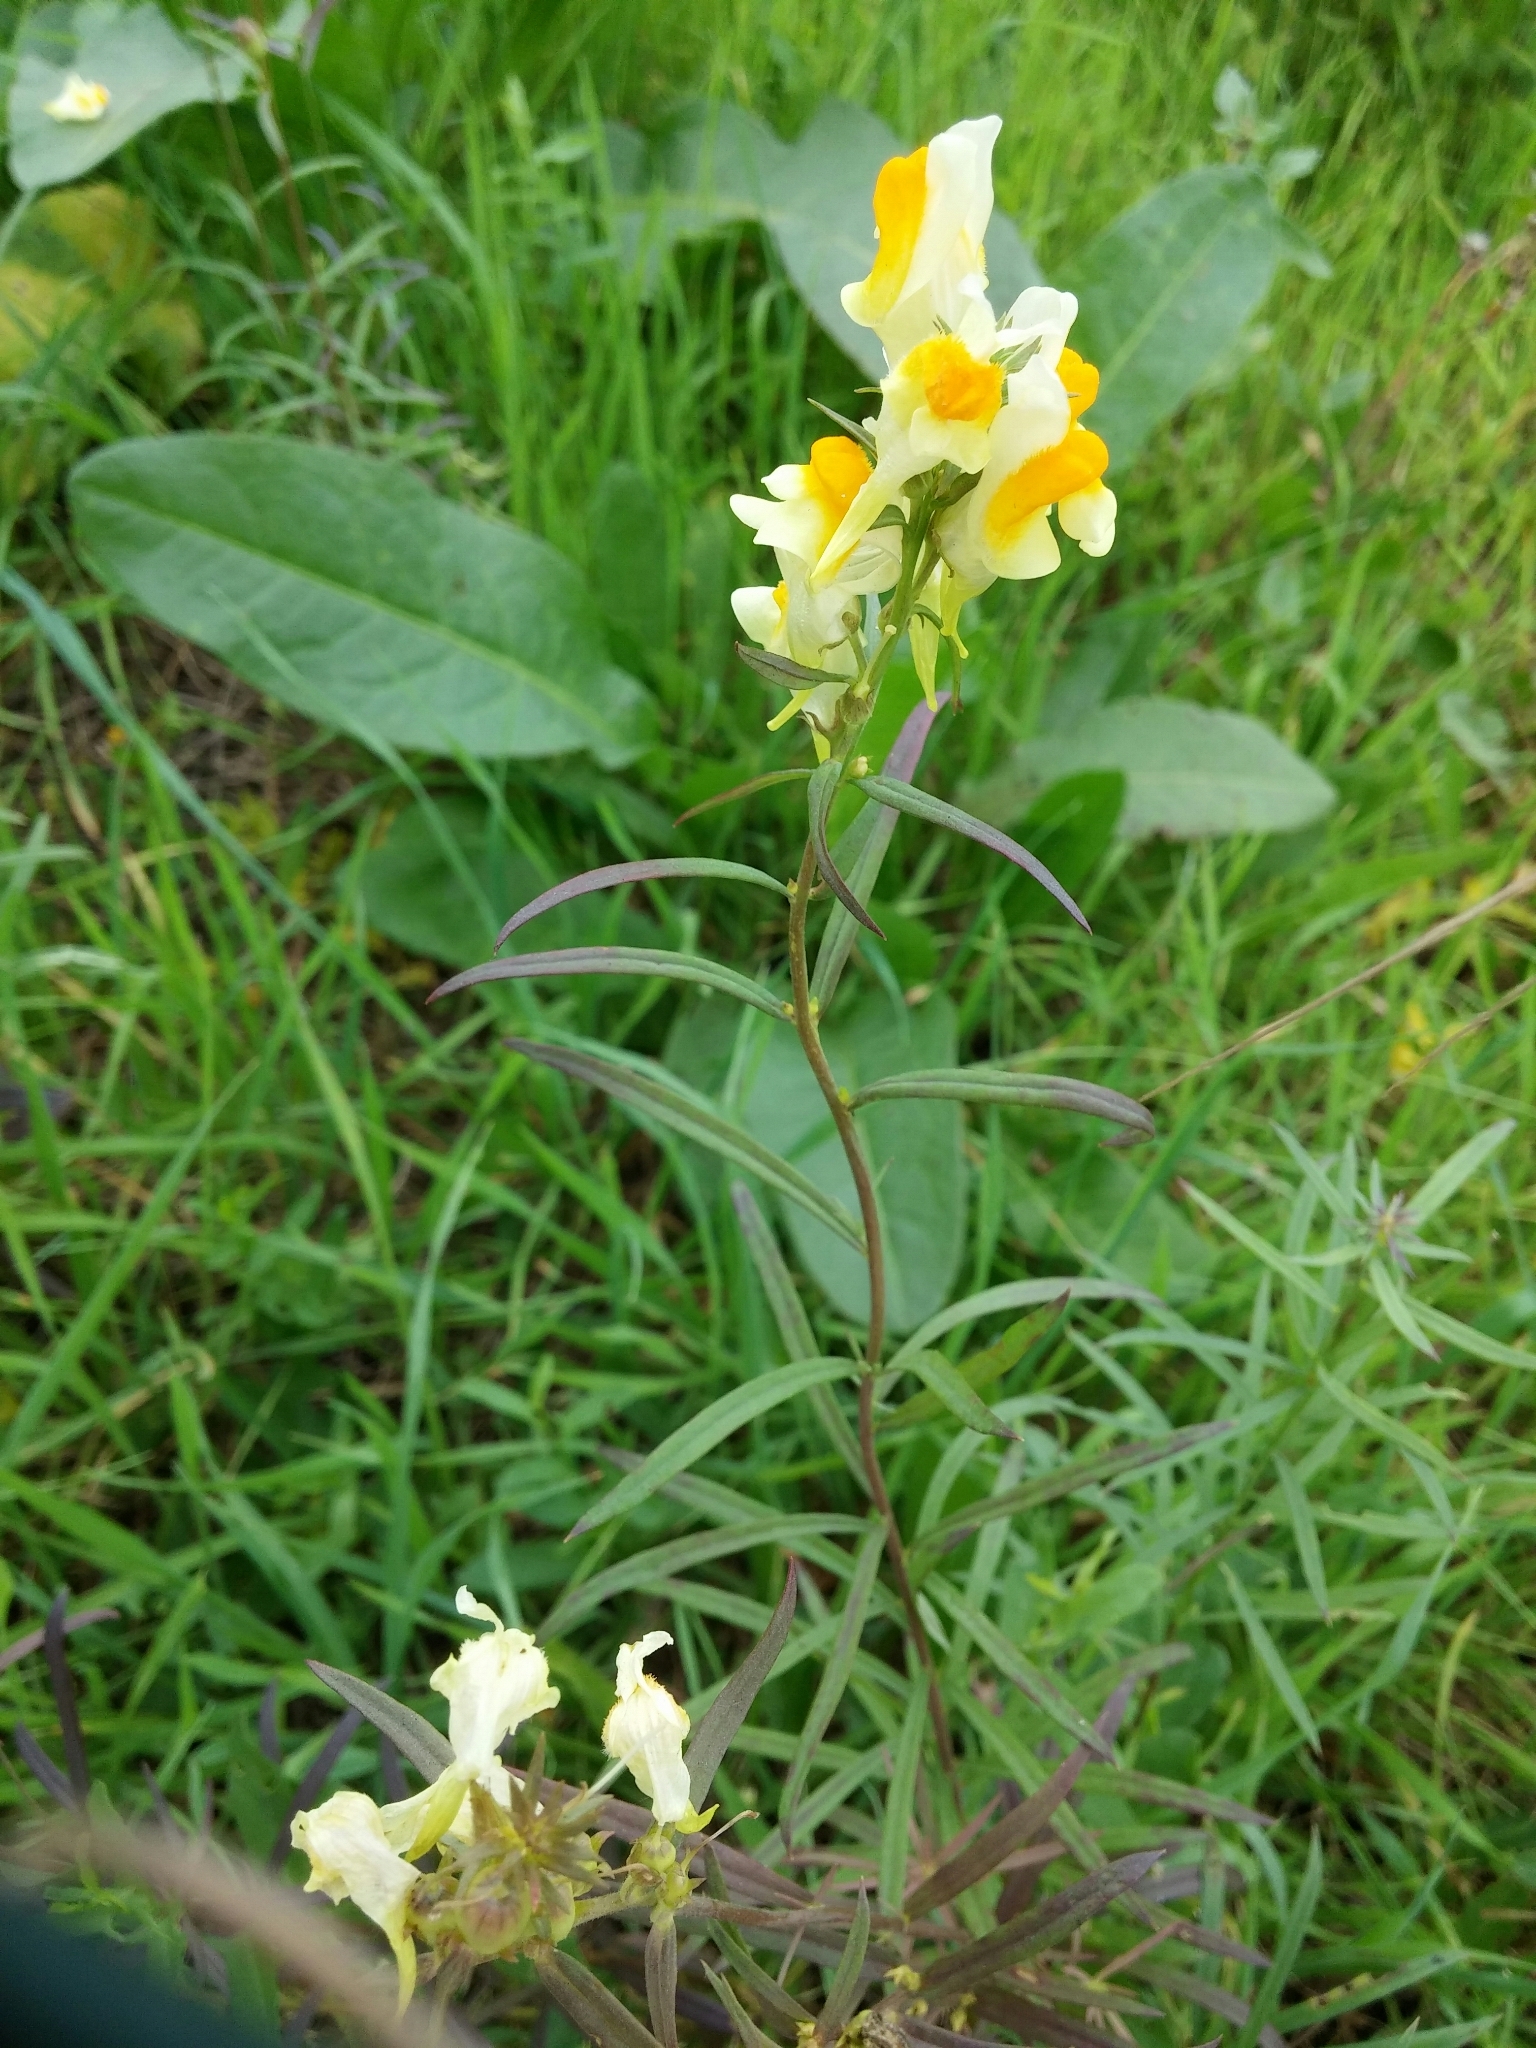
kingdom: Plantae
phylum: Tracheophyta
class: Magnoliopsida
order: Lamiales
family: Plantaginaceae
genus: Linaria
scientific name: Linaria vulgaris
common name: Butter and eggs
